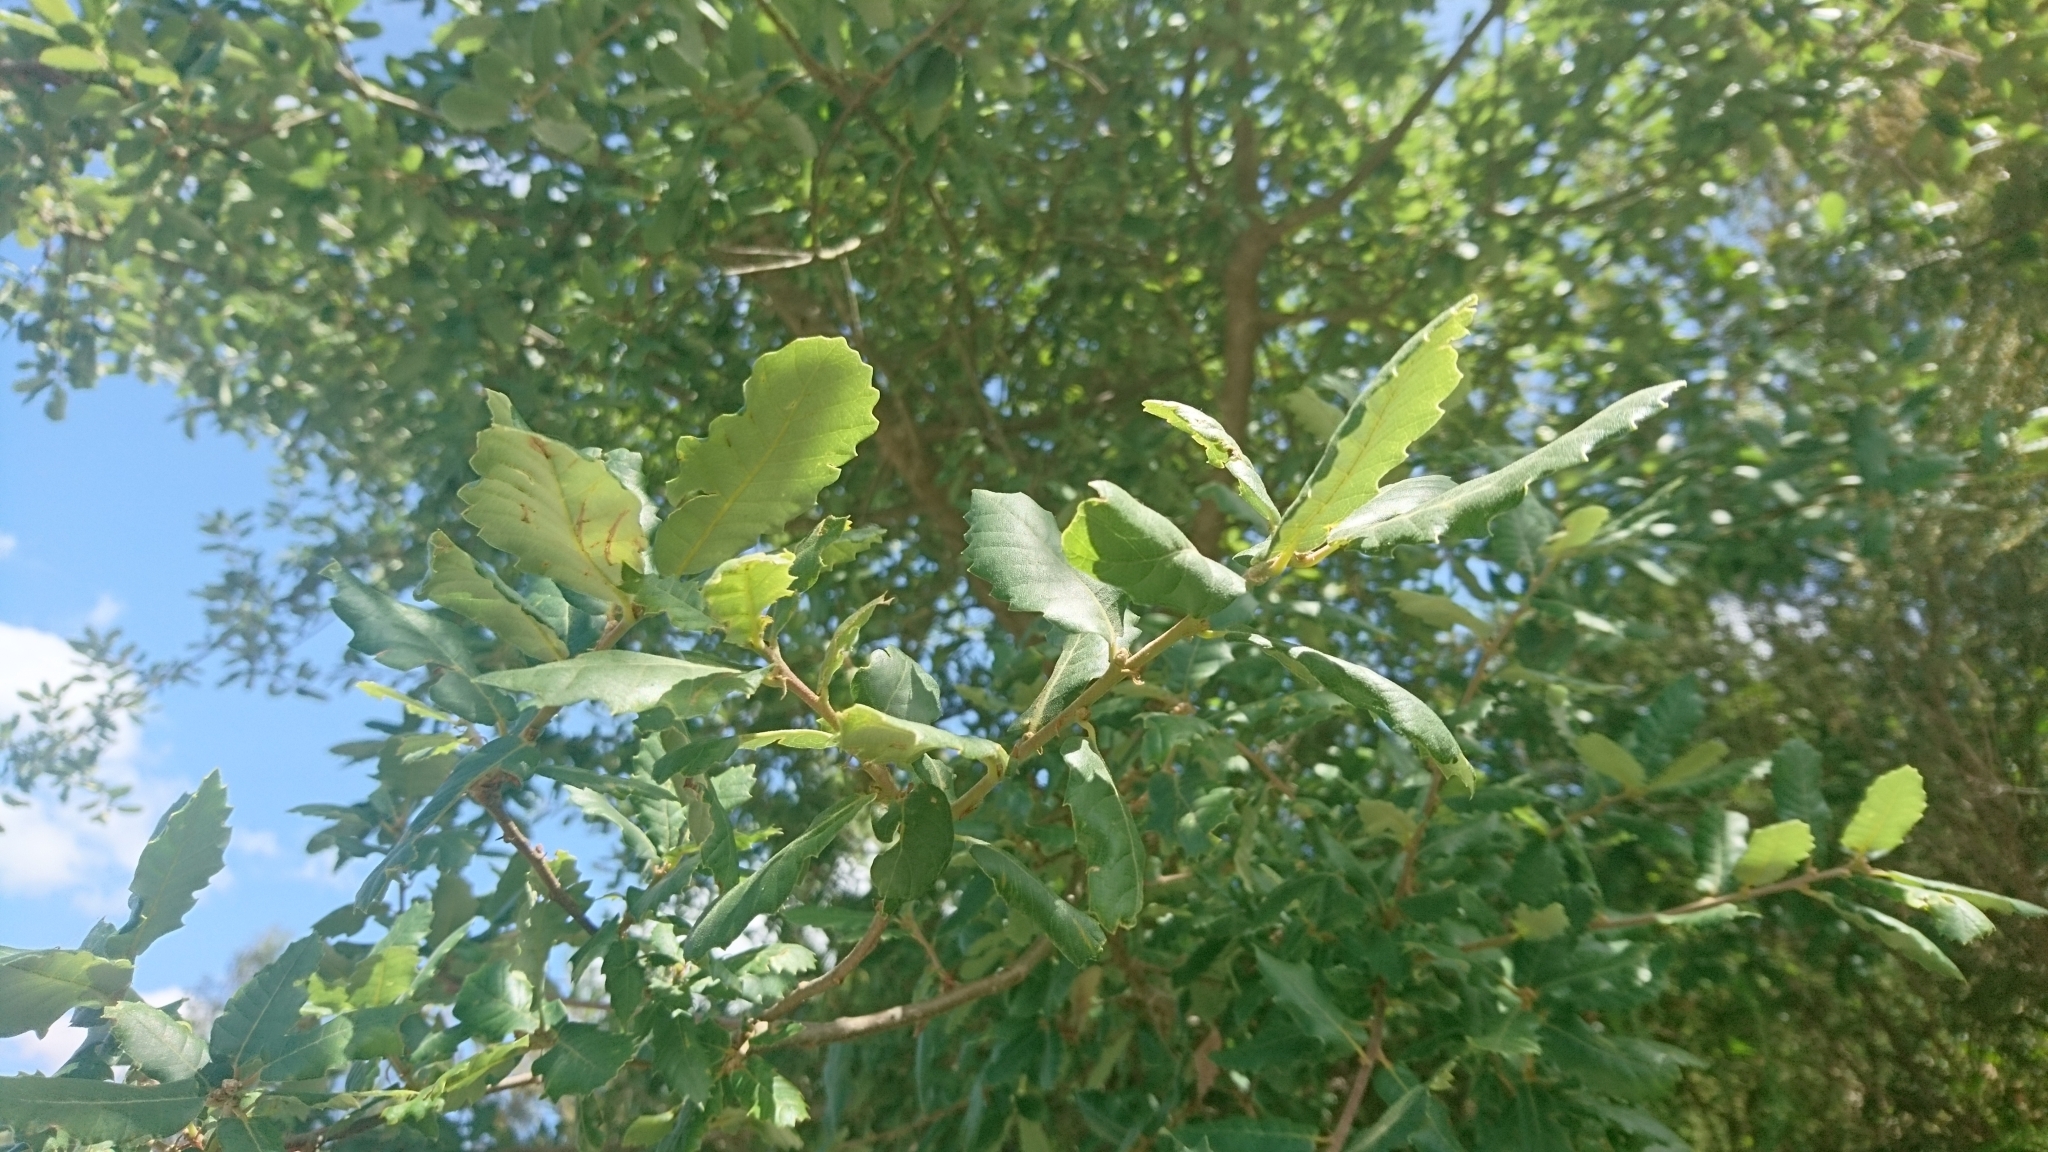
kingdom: Plantae
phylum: Tracheophyta
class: Magnoliopsida
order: Fagales
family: Fagaceae
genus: Quercus
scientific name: Quercus faginea
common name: Gall oak tree
